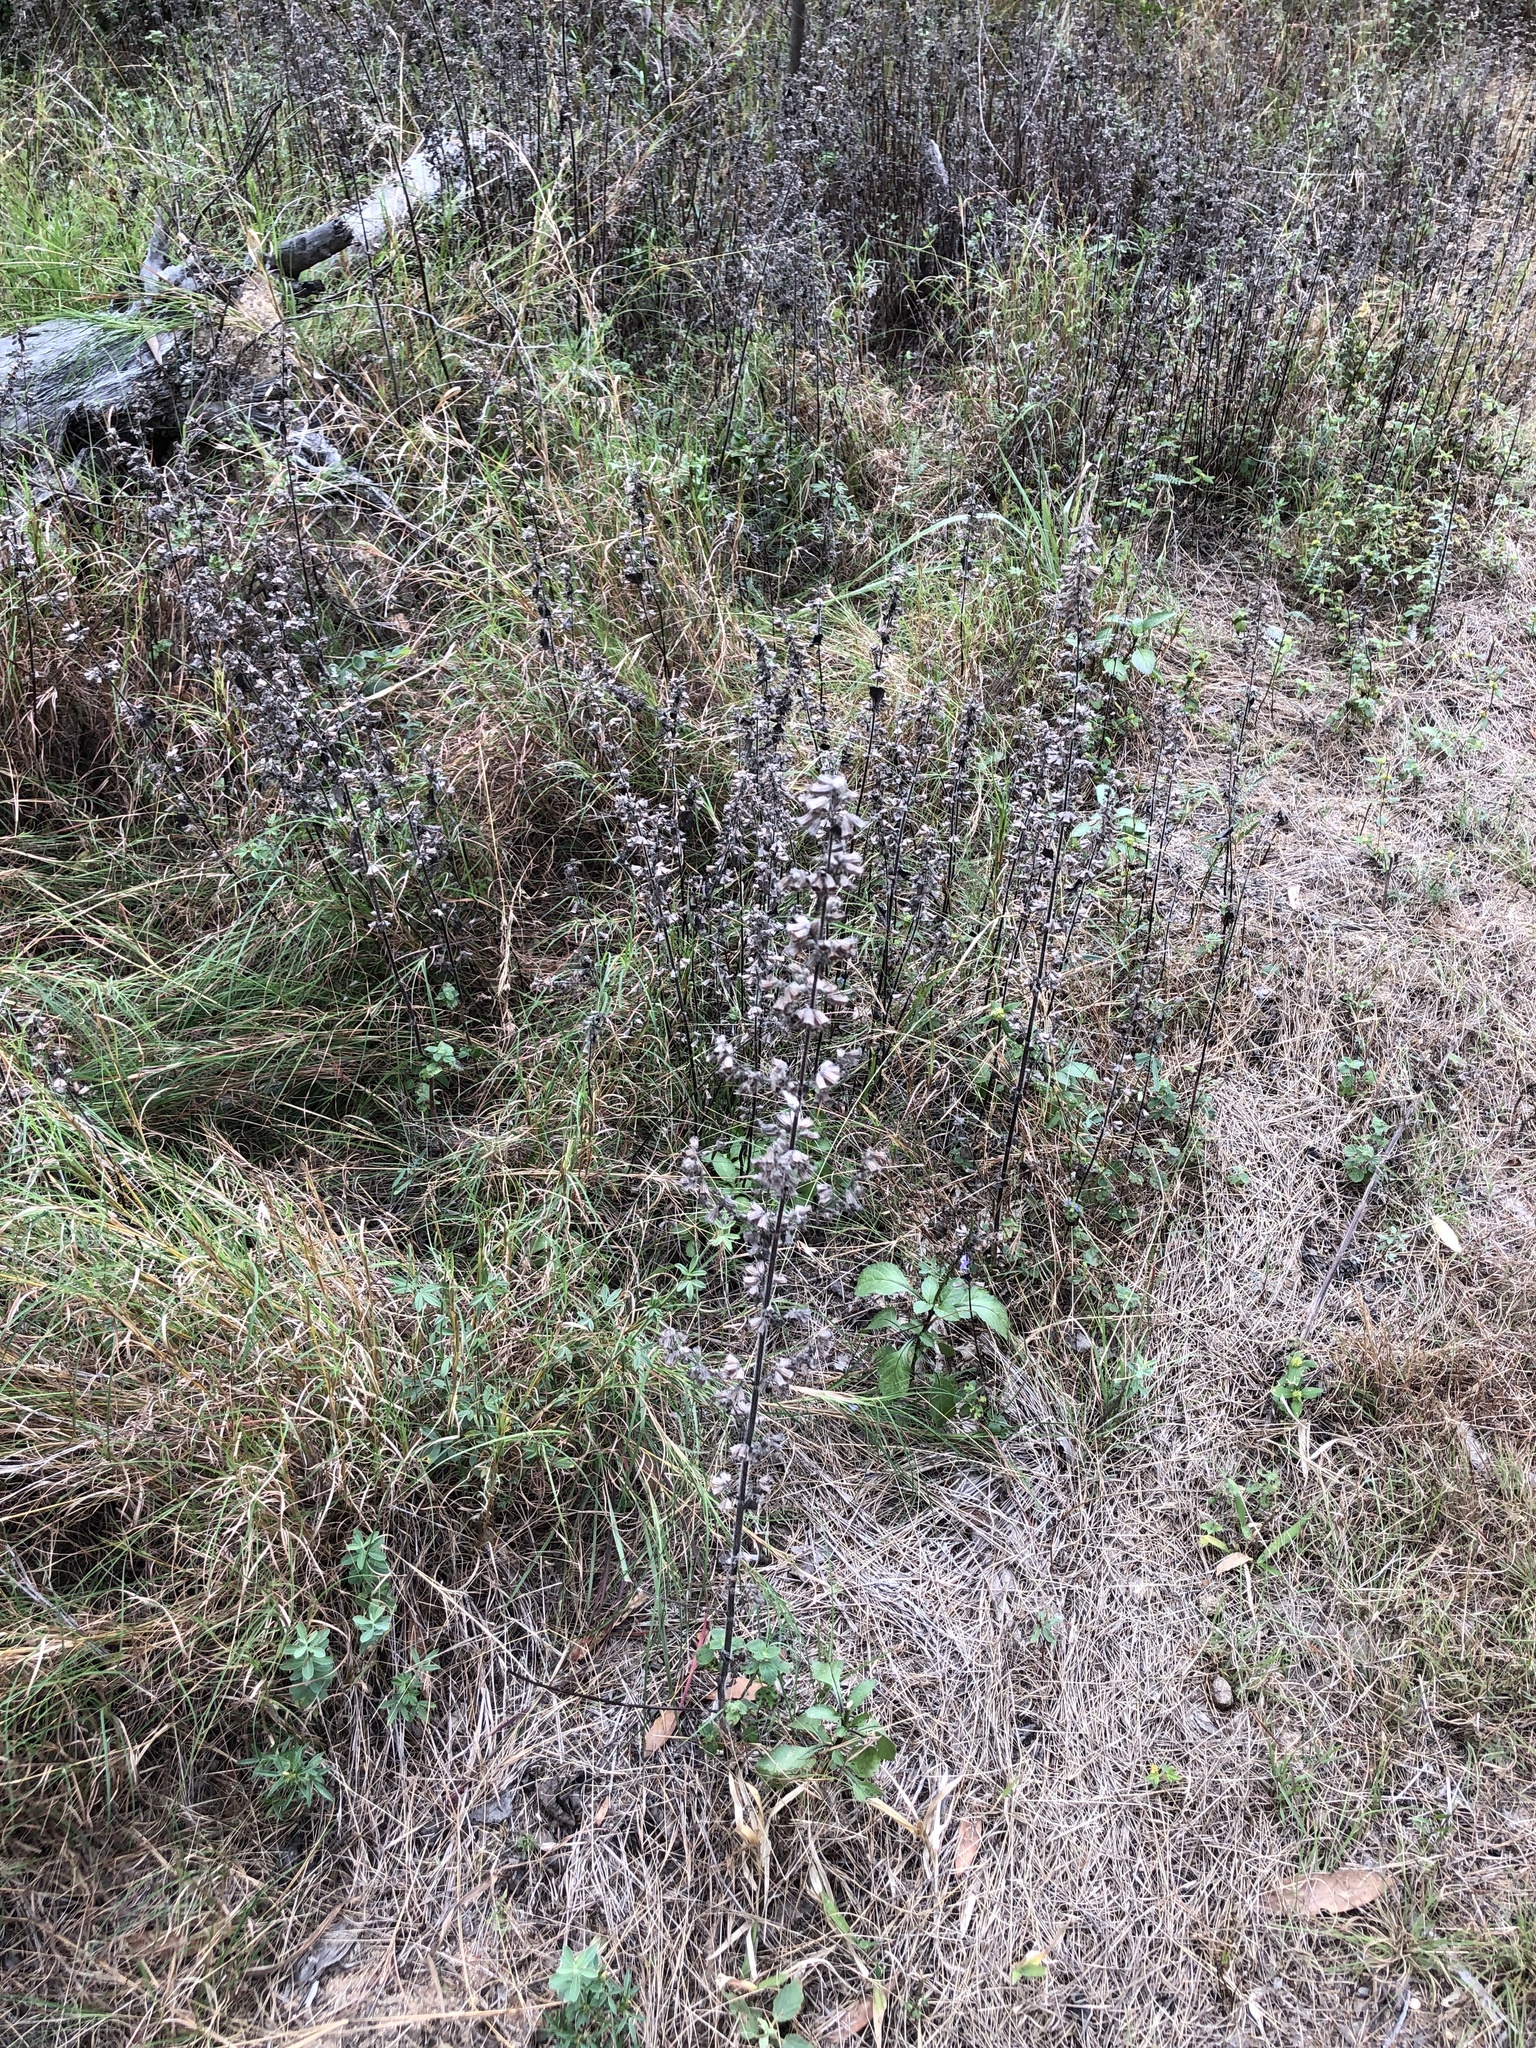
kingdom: Plantae
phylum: Tracheophyta
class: Magnoliopsida
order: Lamiales
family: Lamiaceae
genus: Mesosphaerum
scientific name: Mesosphaerum suaveolens
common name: Pignut
